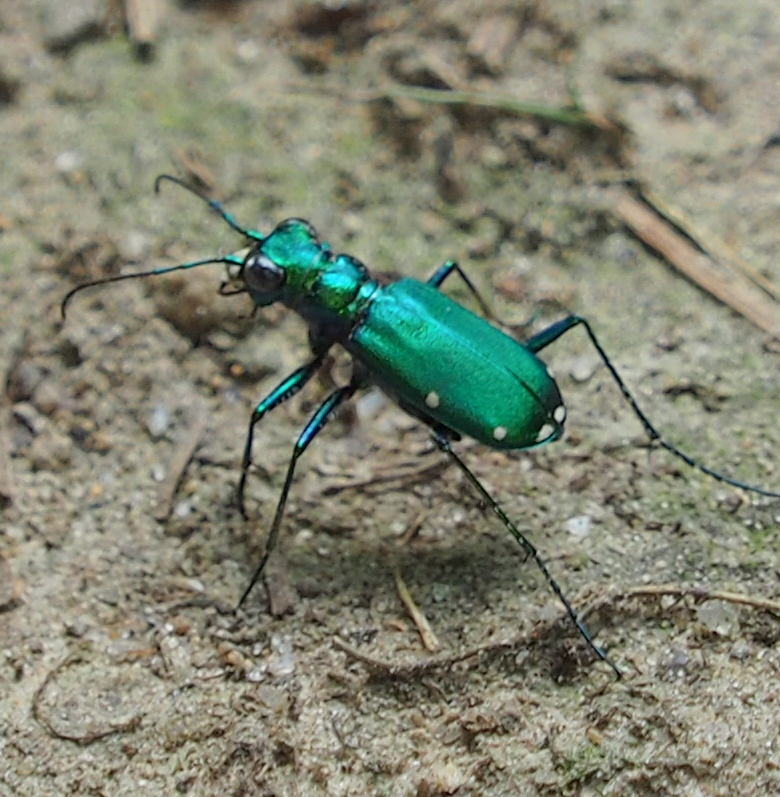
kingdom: Animalia
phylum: Arthropoda
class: Insecta
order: Coleoptera
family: Carabidae
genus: Cicindela
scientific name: Cicindela sexguttata
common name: Six-spotted tiger beetle
